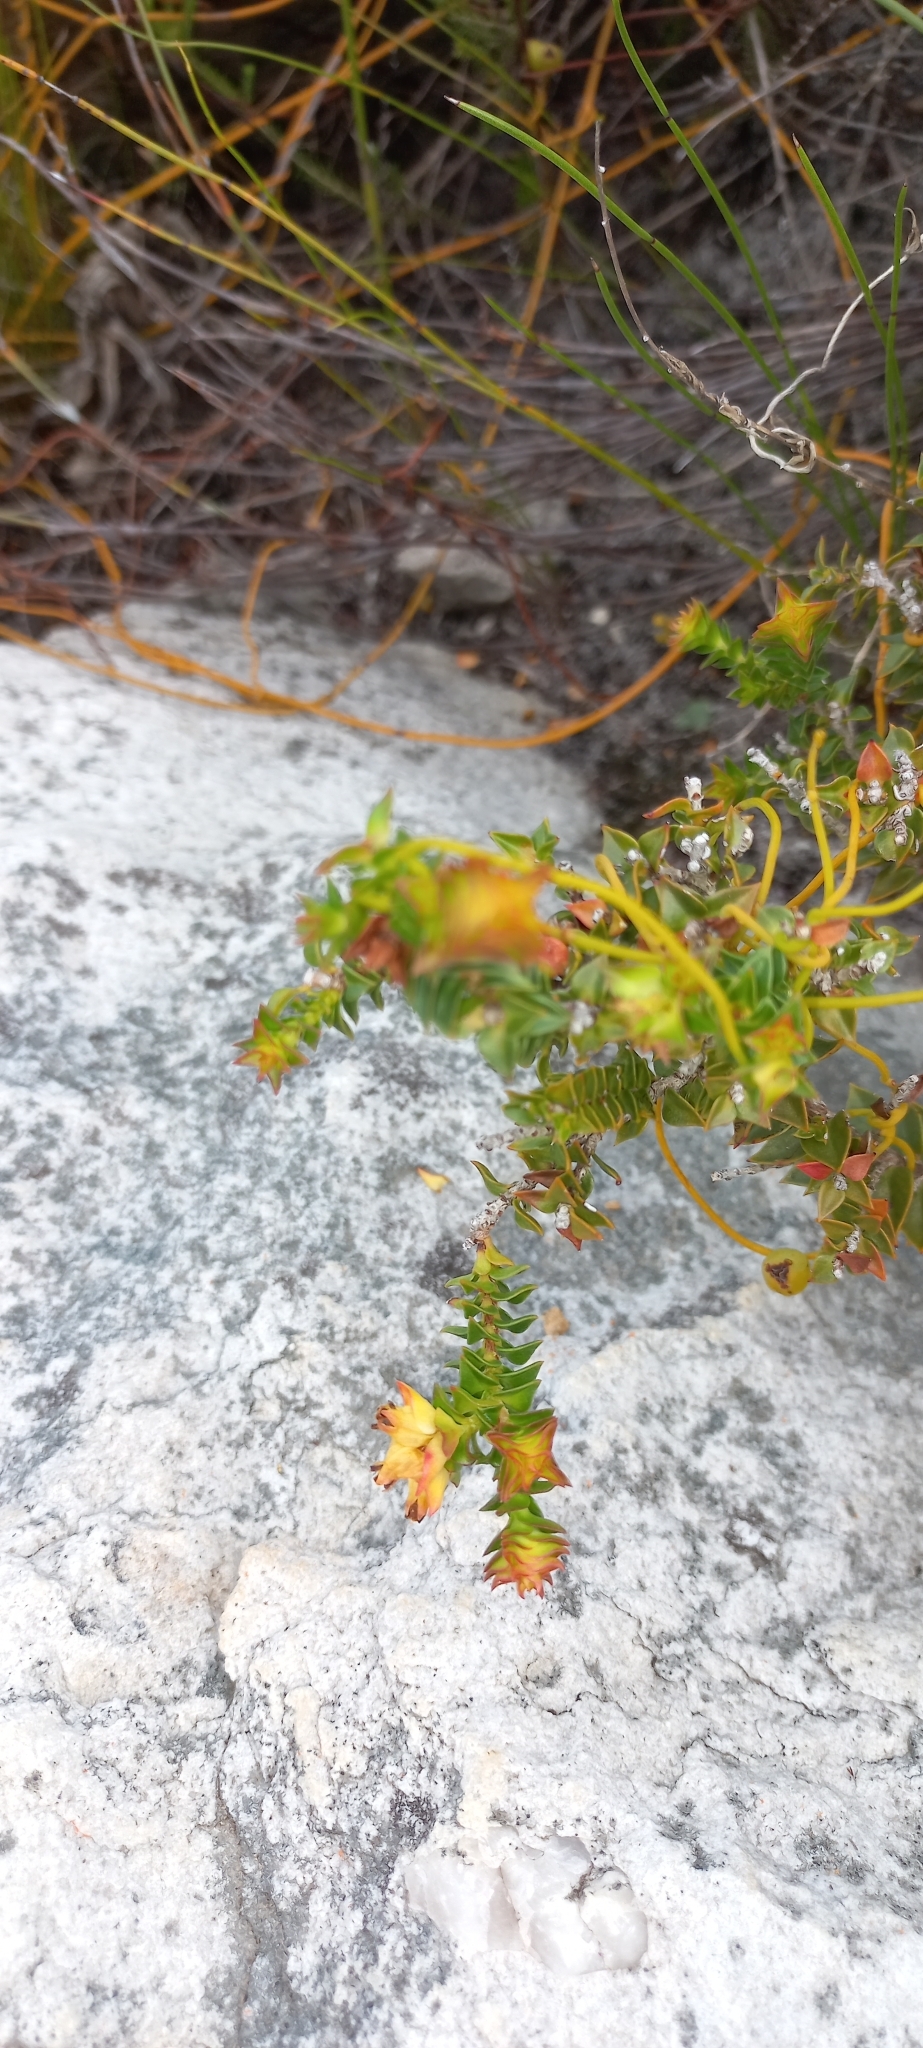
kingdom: Plantae
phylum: Tracheophyta
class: Magnoliopsida
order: Myrtales
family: Penaeaceae
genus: Penaea
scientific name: Penaea mucronata
